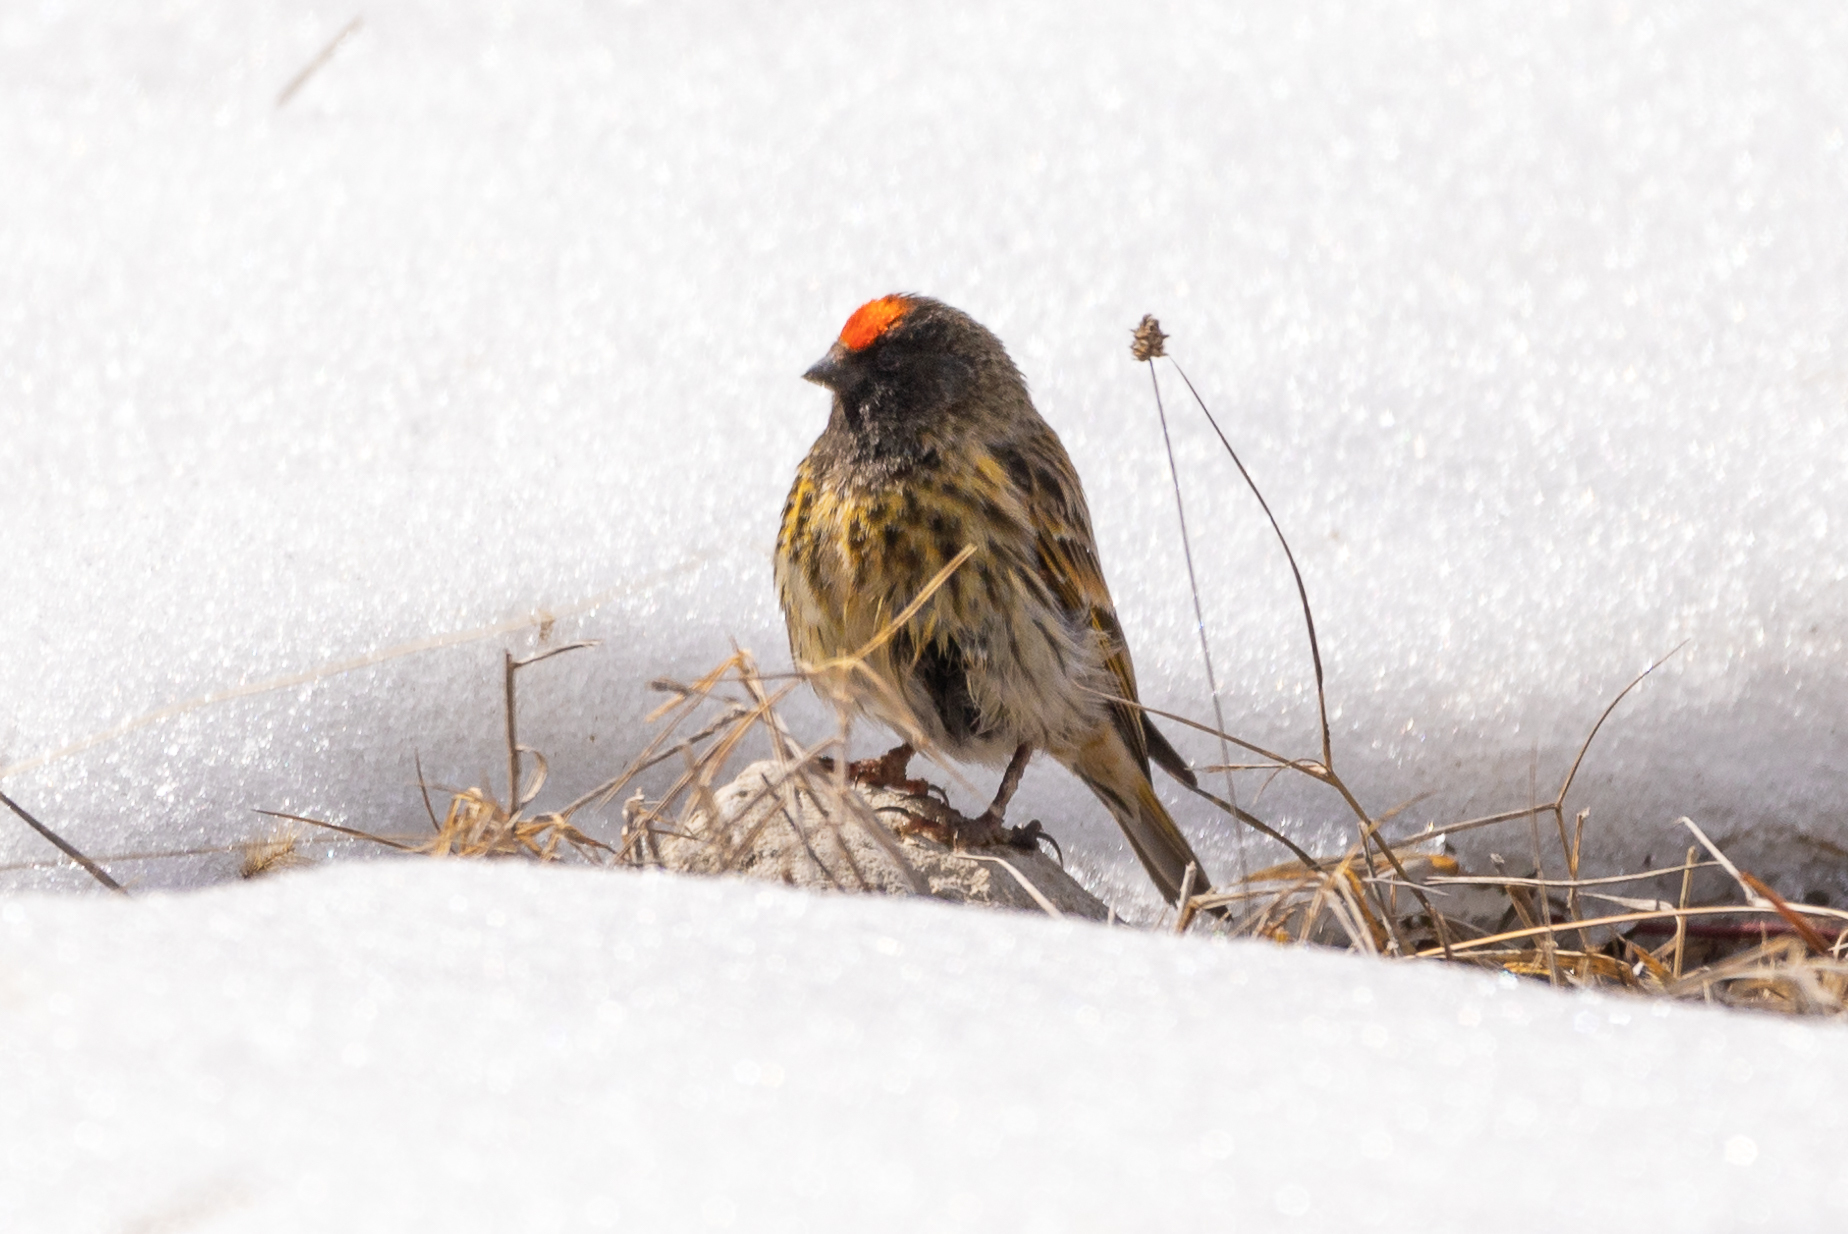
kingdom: Animalia
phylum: Chordata
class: Aves
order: Passeriformes
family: Fringillidae
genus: Serinus
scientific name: Serinus pusillus
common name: Red-fronted serin
